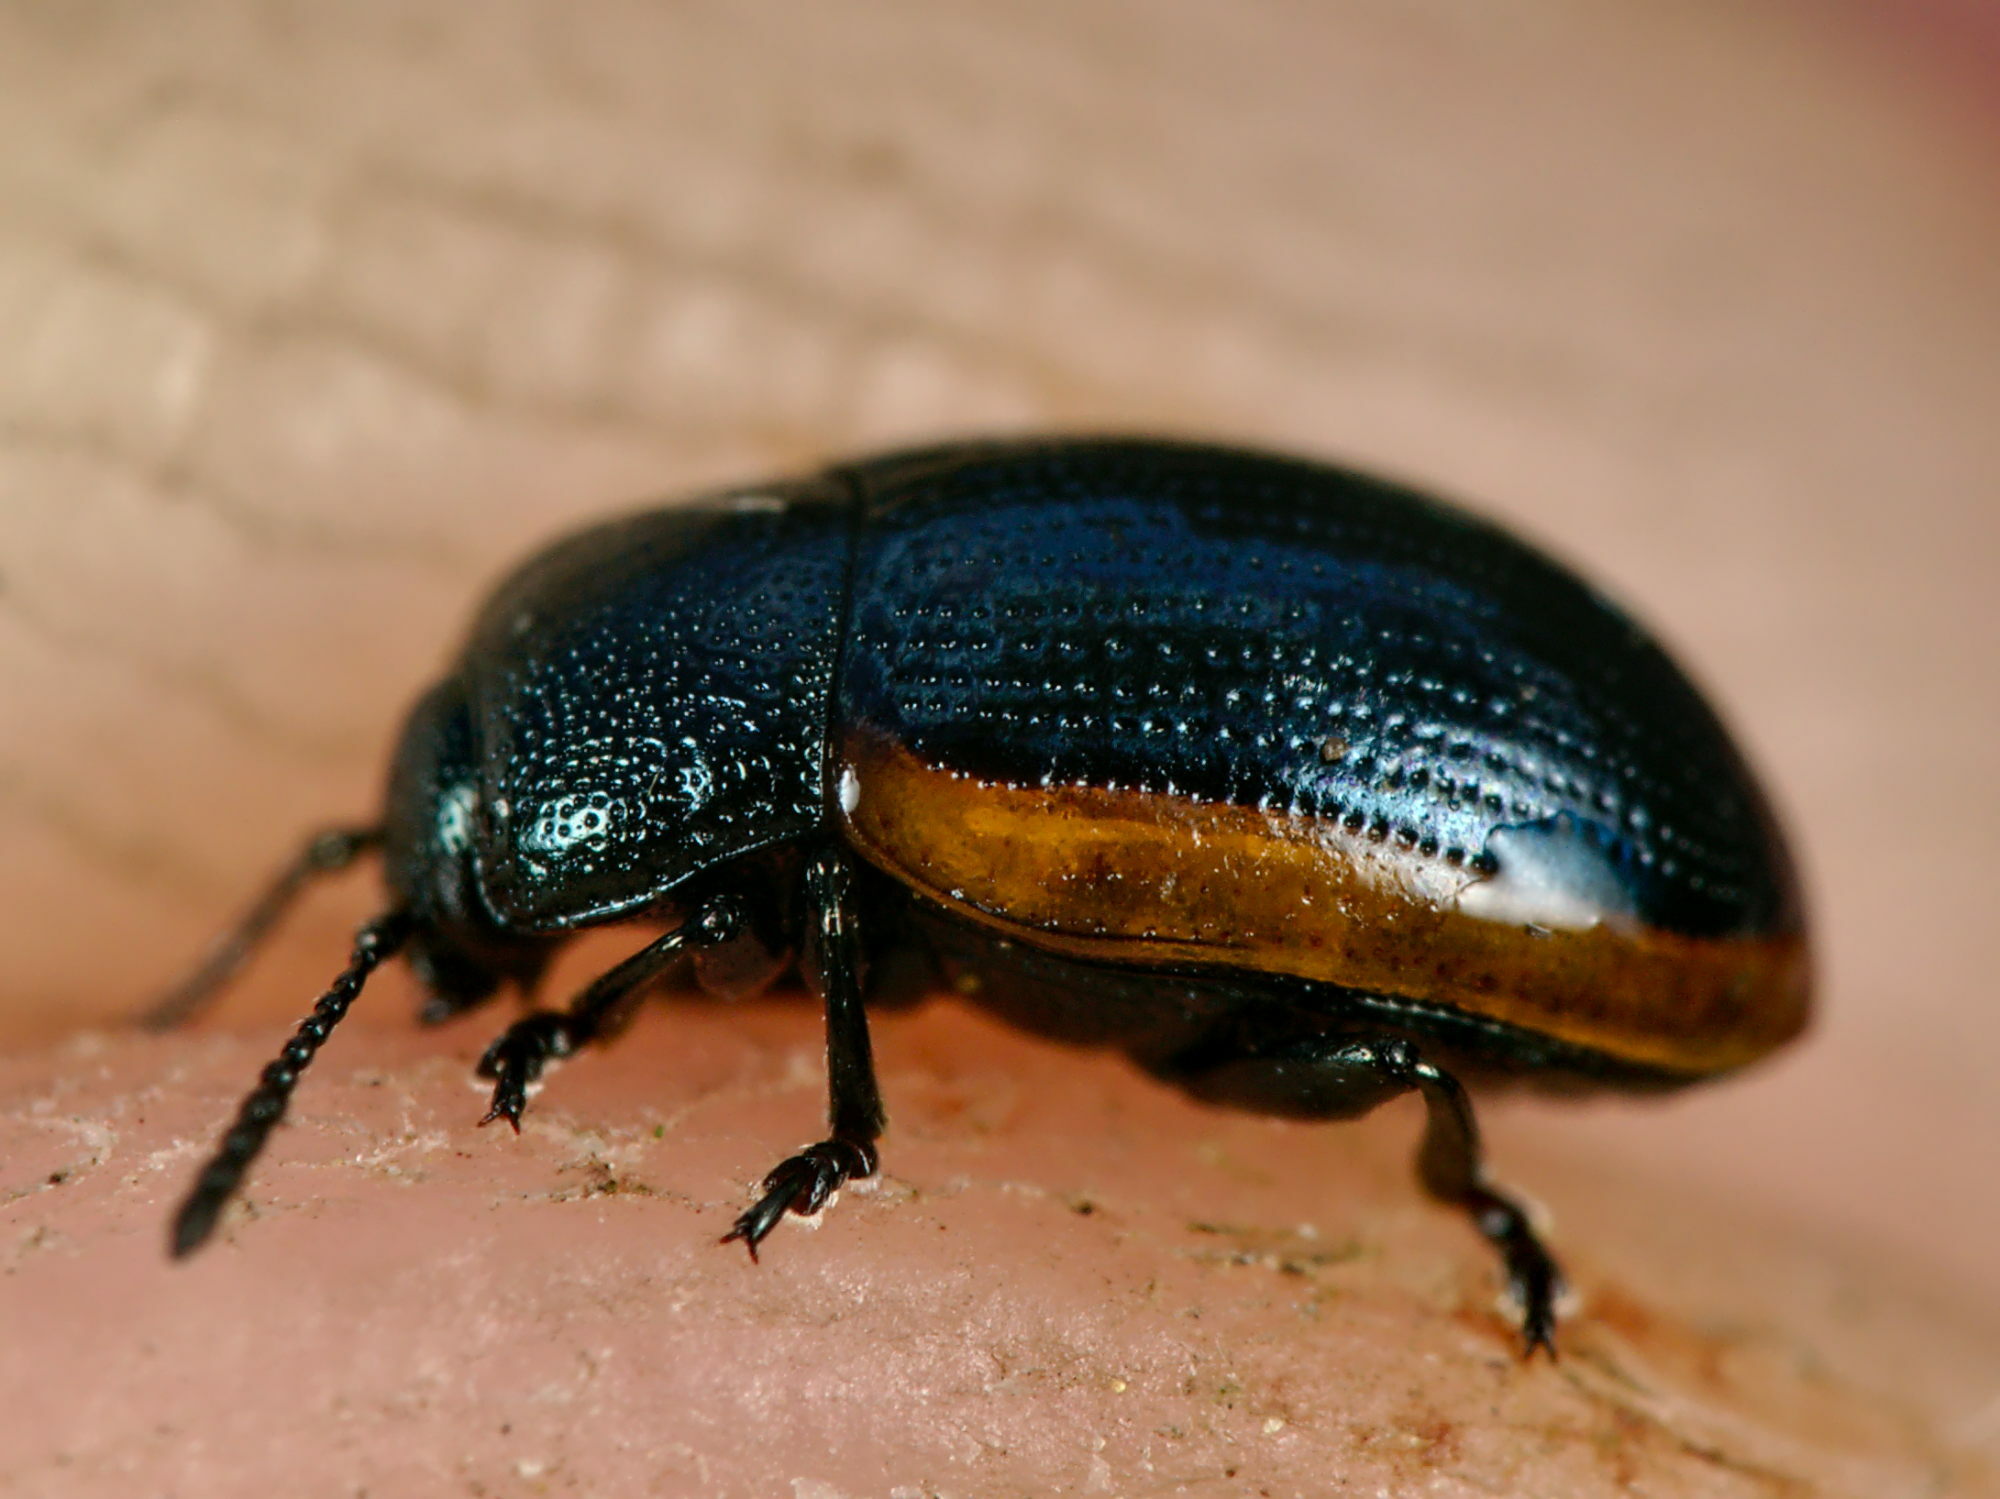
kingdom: Animalia
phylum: Arthropoda
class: Insecta
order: Coleoptera
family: Chrysomelidae
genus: Hydrothassa
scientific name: Hydrothassa glabra
